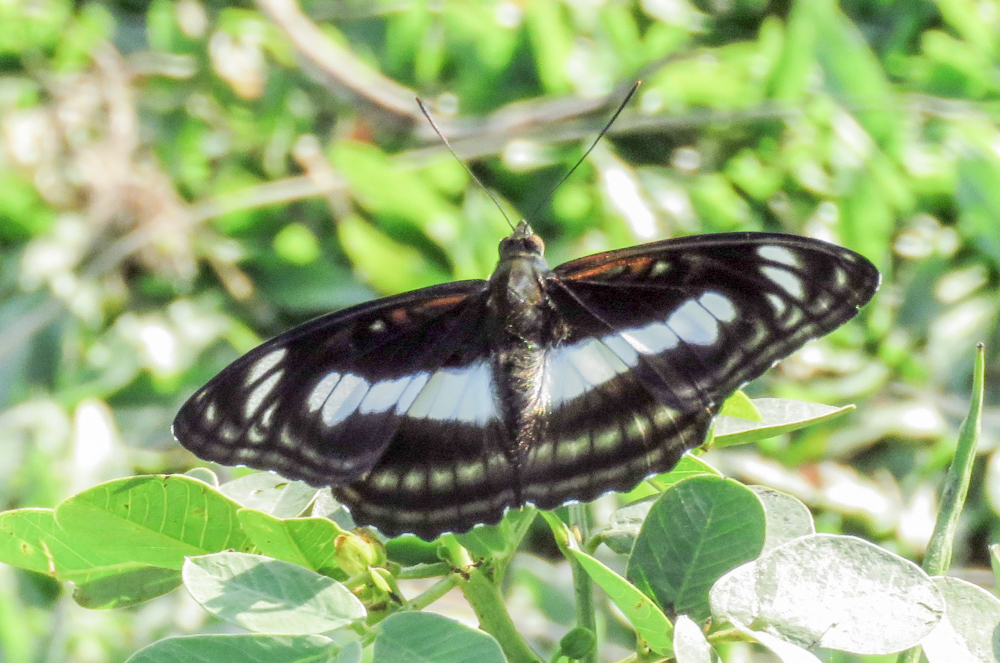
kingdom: Animalia
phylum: Arthropoda
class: Insecta
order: Lepidoptera
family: Nymphalidae
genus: Parathyma
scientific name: Parathyma selenophora
